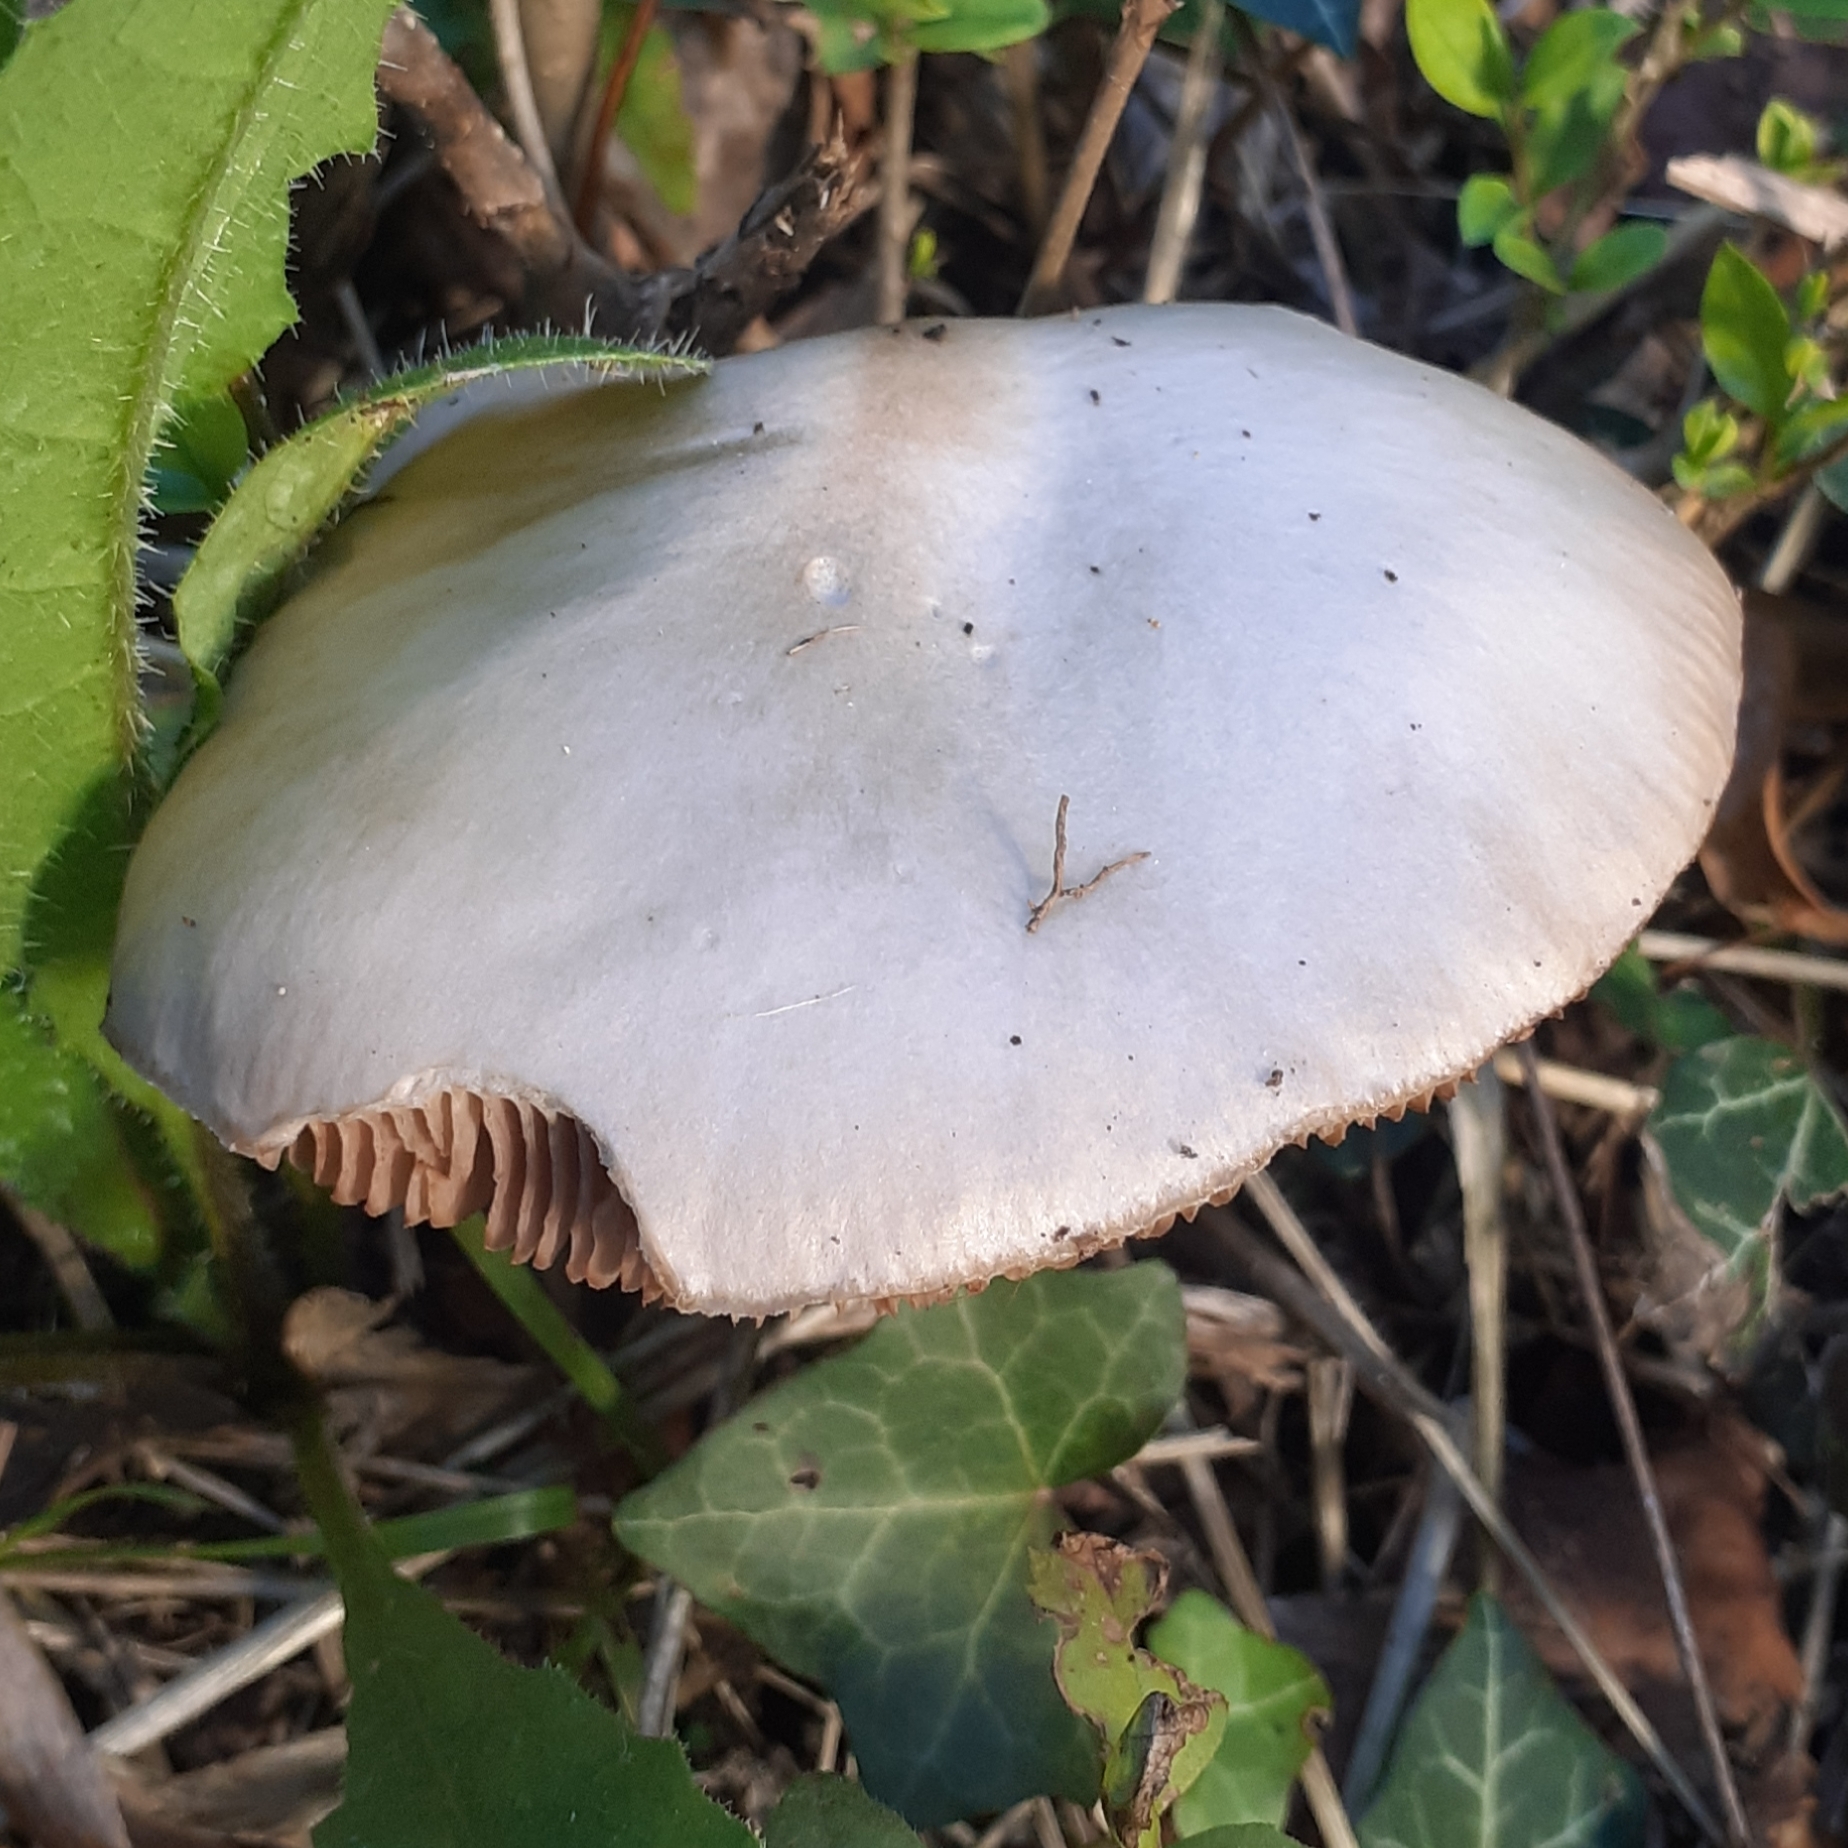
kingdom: Fungi
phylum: Basidiomycota
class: Agaricomycetes
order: Agaricales
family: Pluteaceae
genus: Volvopluteus
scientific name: Volvopluteus gloiocephalus
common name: Stubble rosegill
